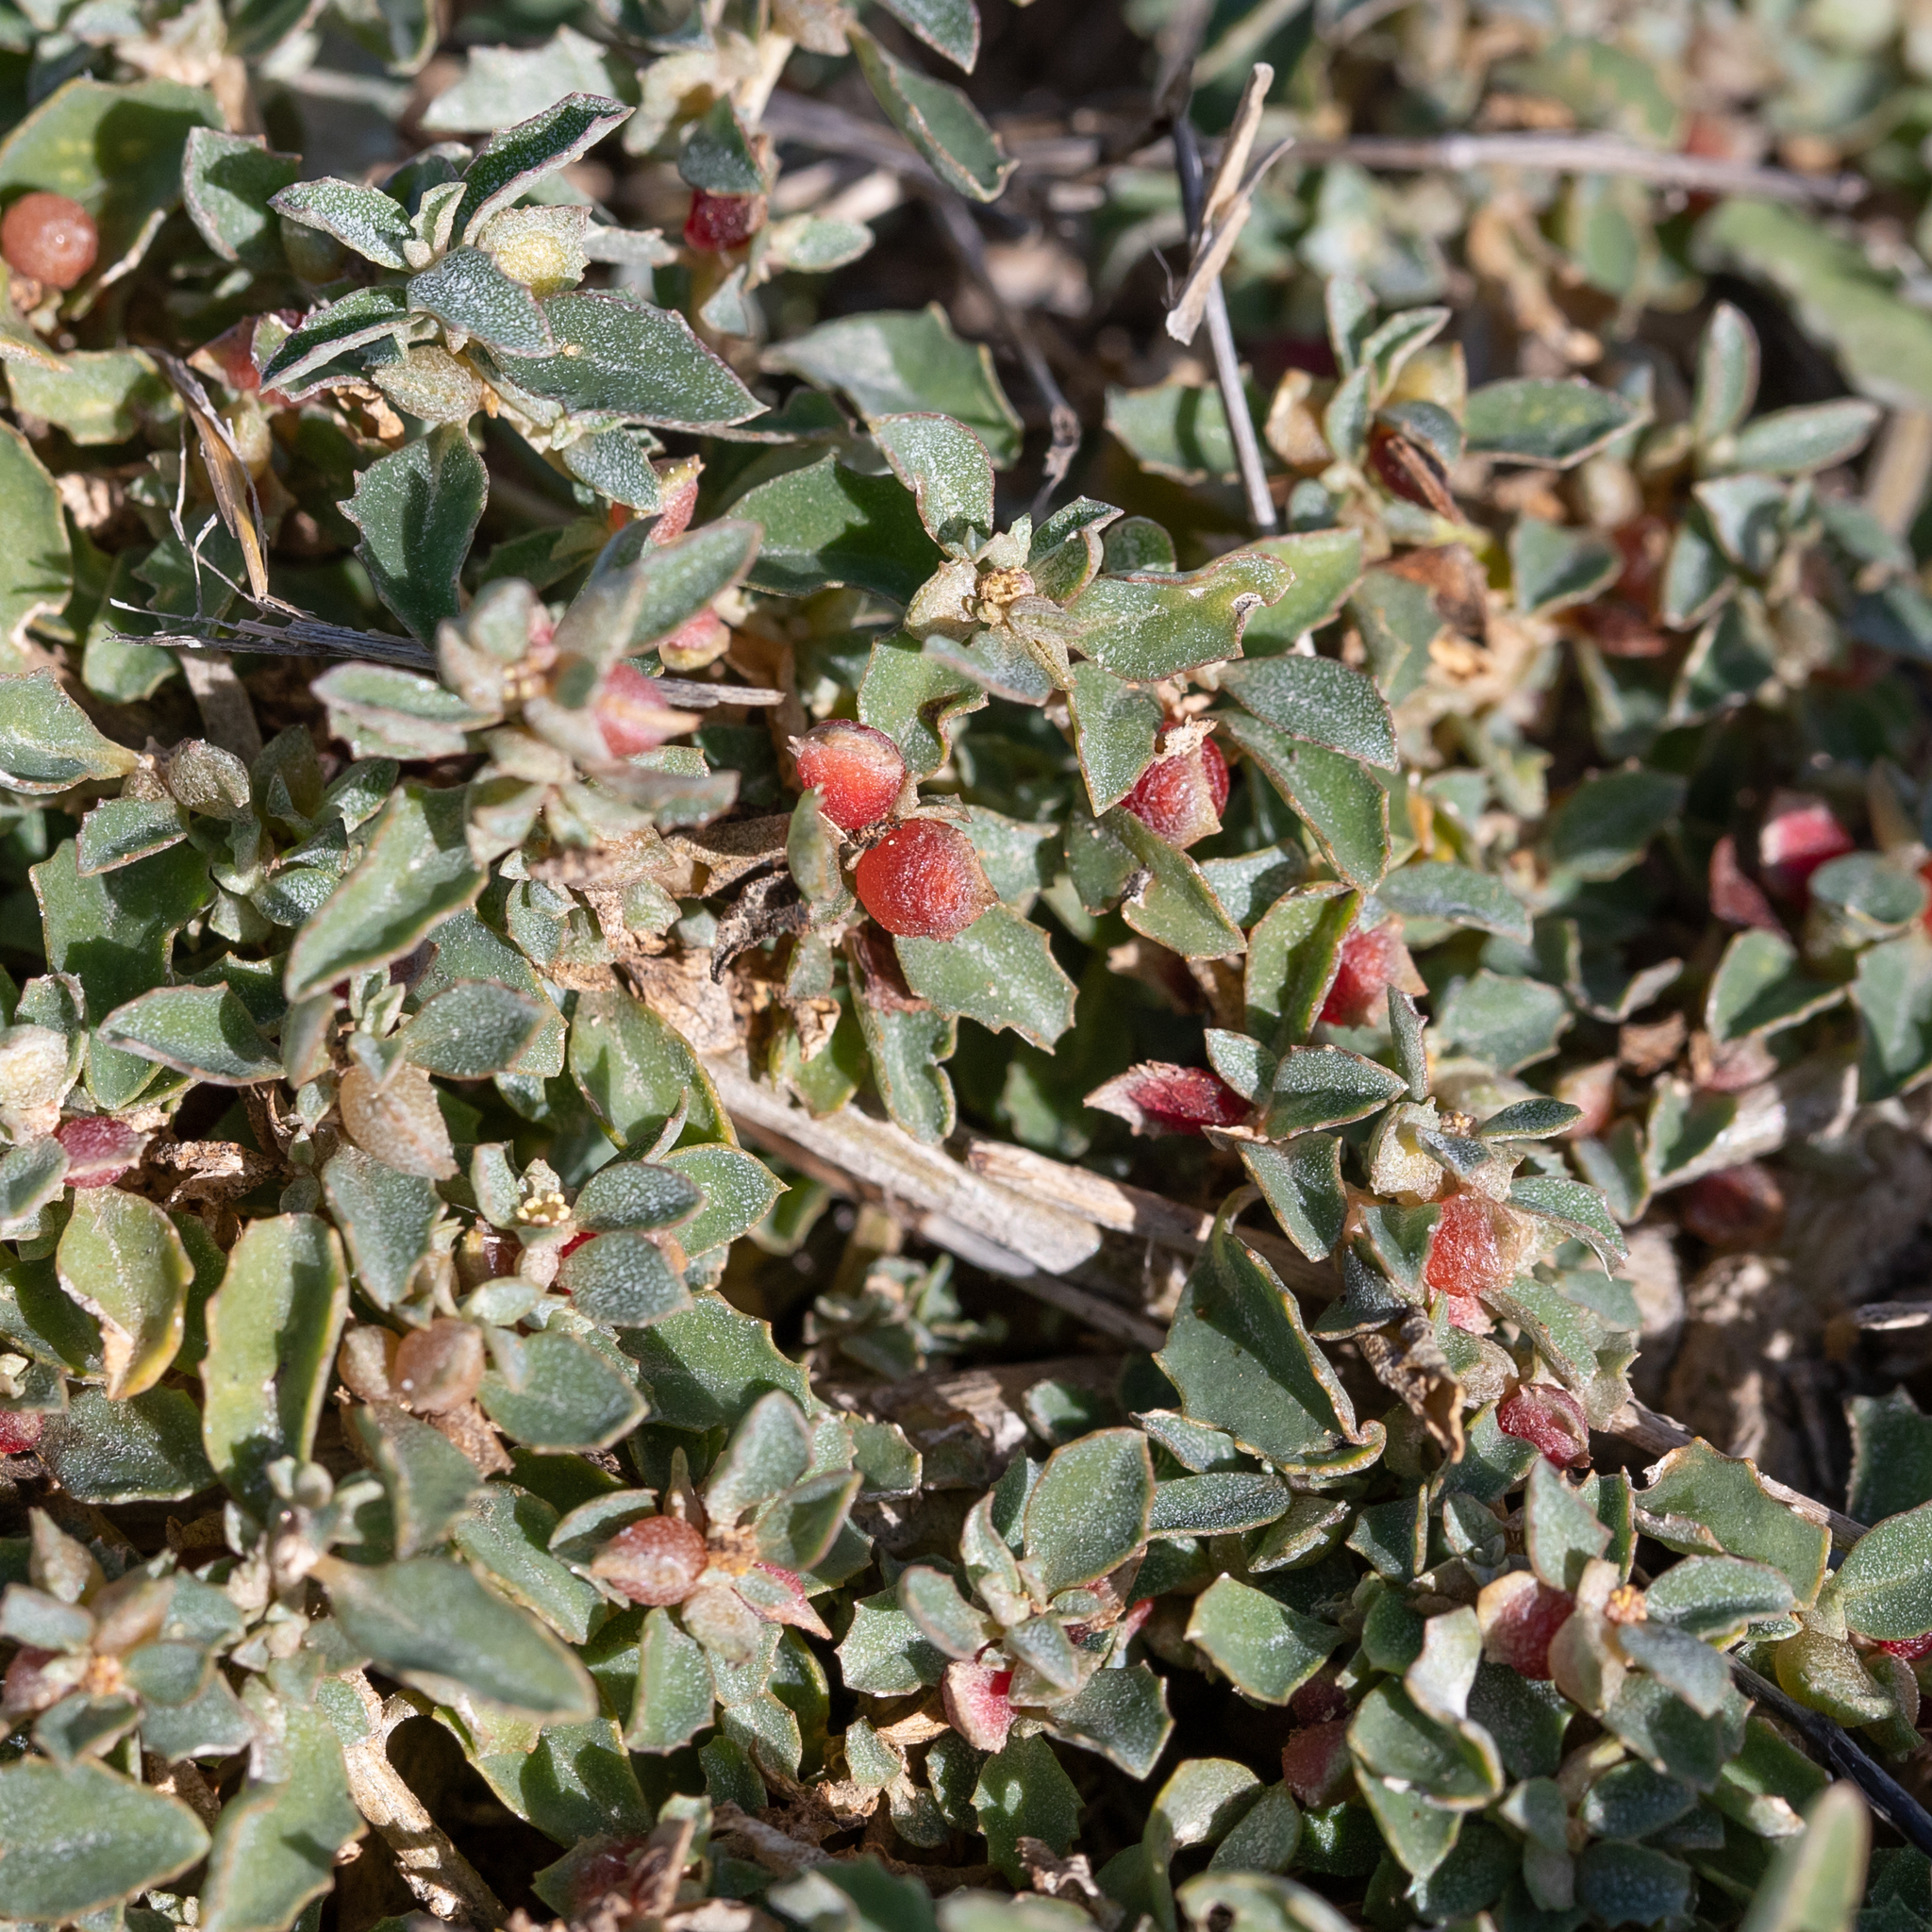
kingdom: Plantae
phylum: Tracheophyta
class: Magnoliopsida
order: Caryophyllales
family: Amaranthaceae
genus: Atriplex
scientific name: Atriplex semibaccata
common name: Australian saltbush
